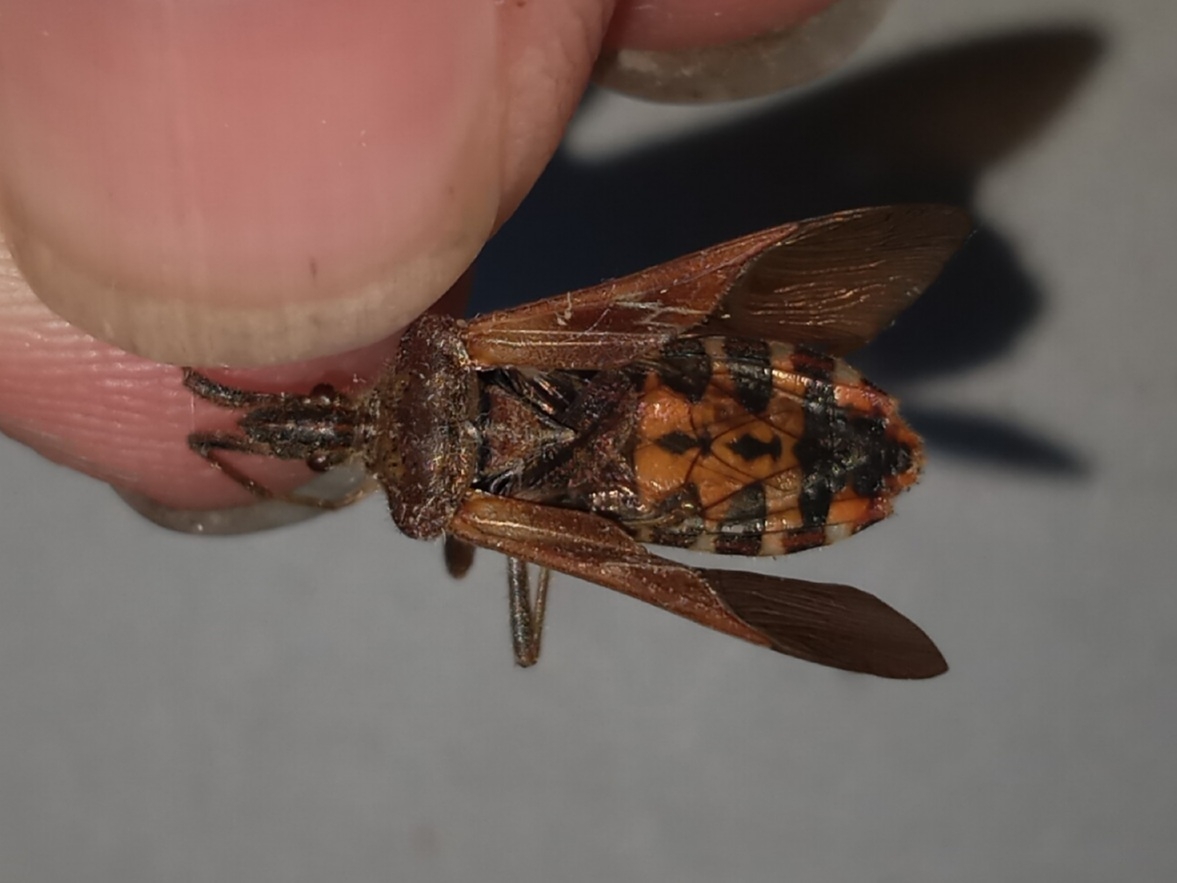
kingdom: Animalia
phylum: Arthropoda
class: Insecta
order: Hemiptera
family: Coreidae
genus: Leptoglossus
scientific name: Leptoglossus occidentalis
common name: Western conifer-seed bug
